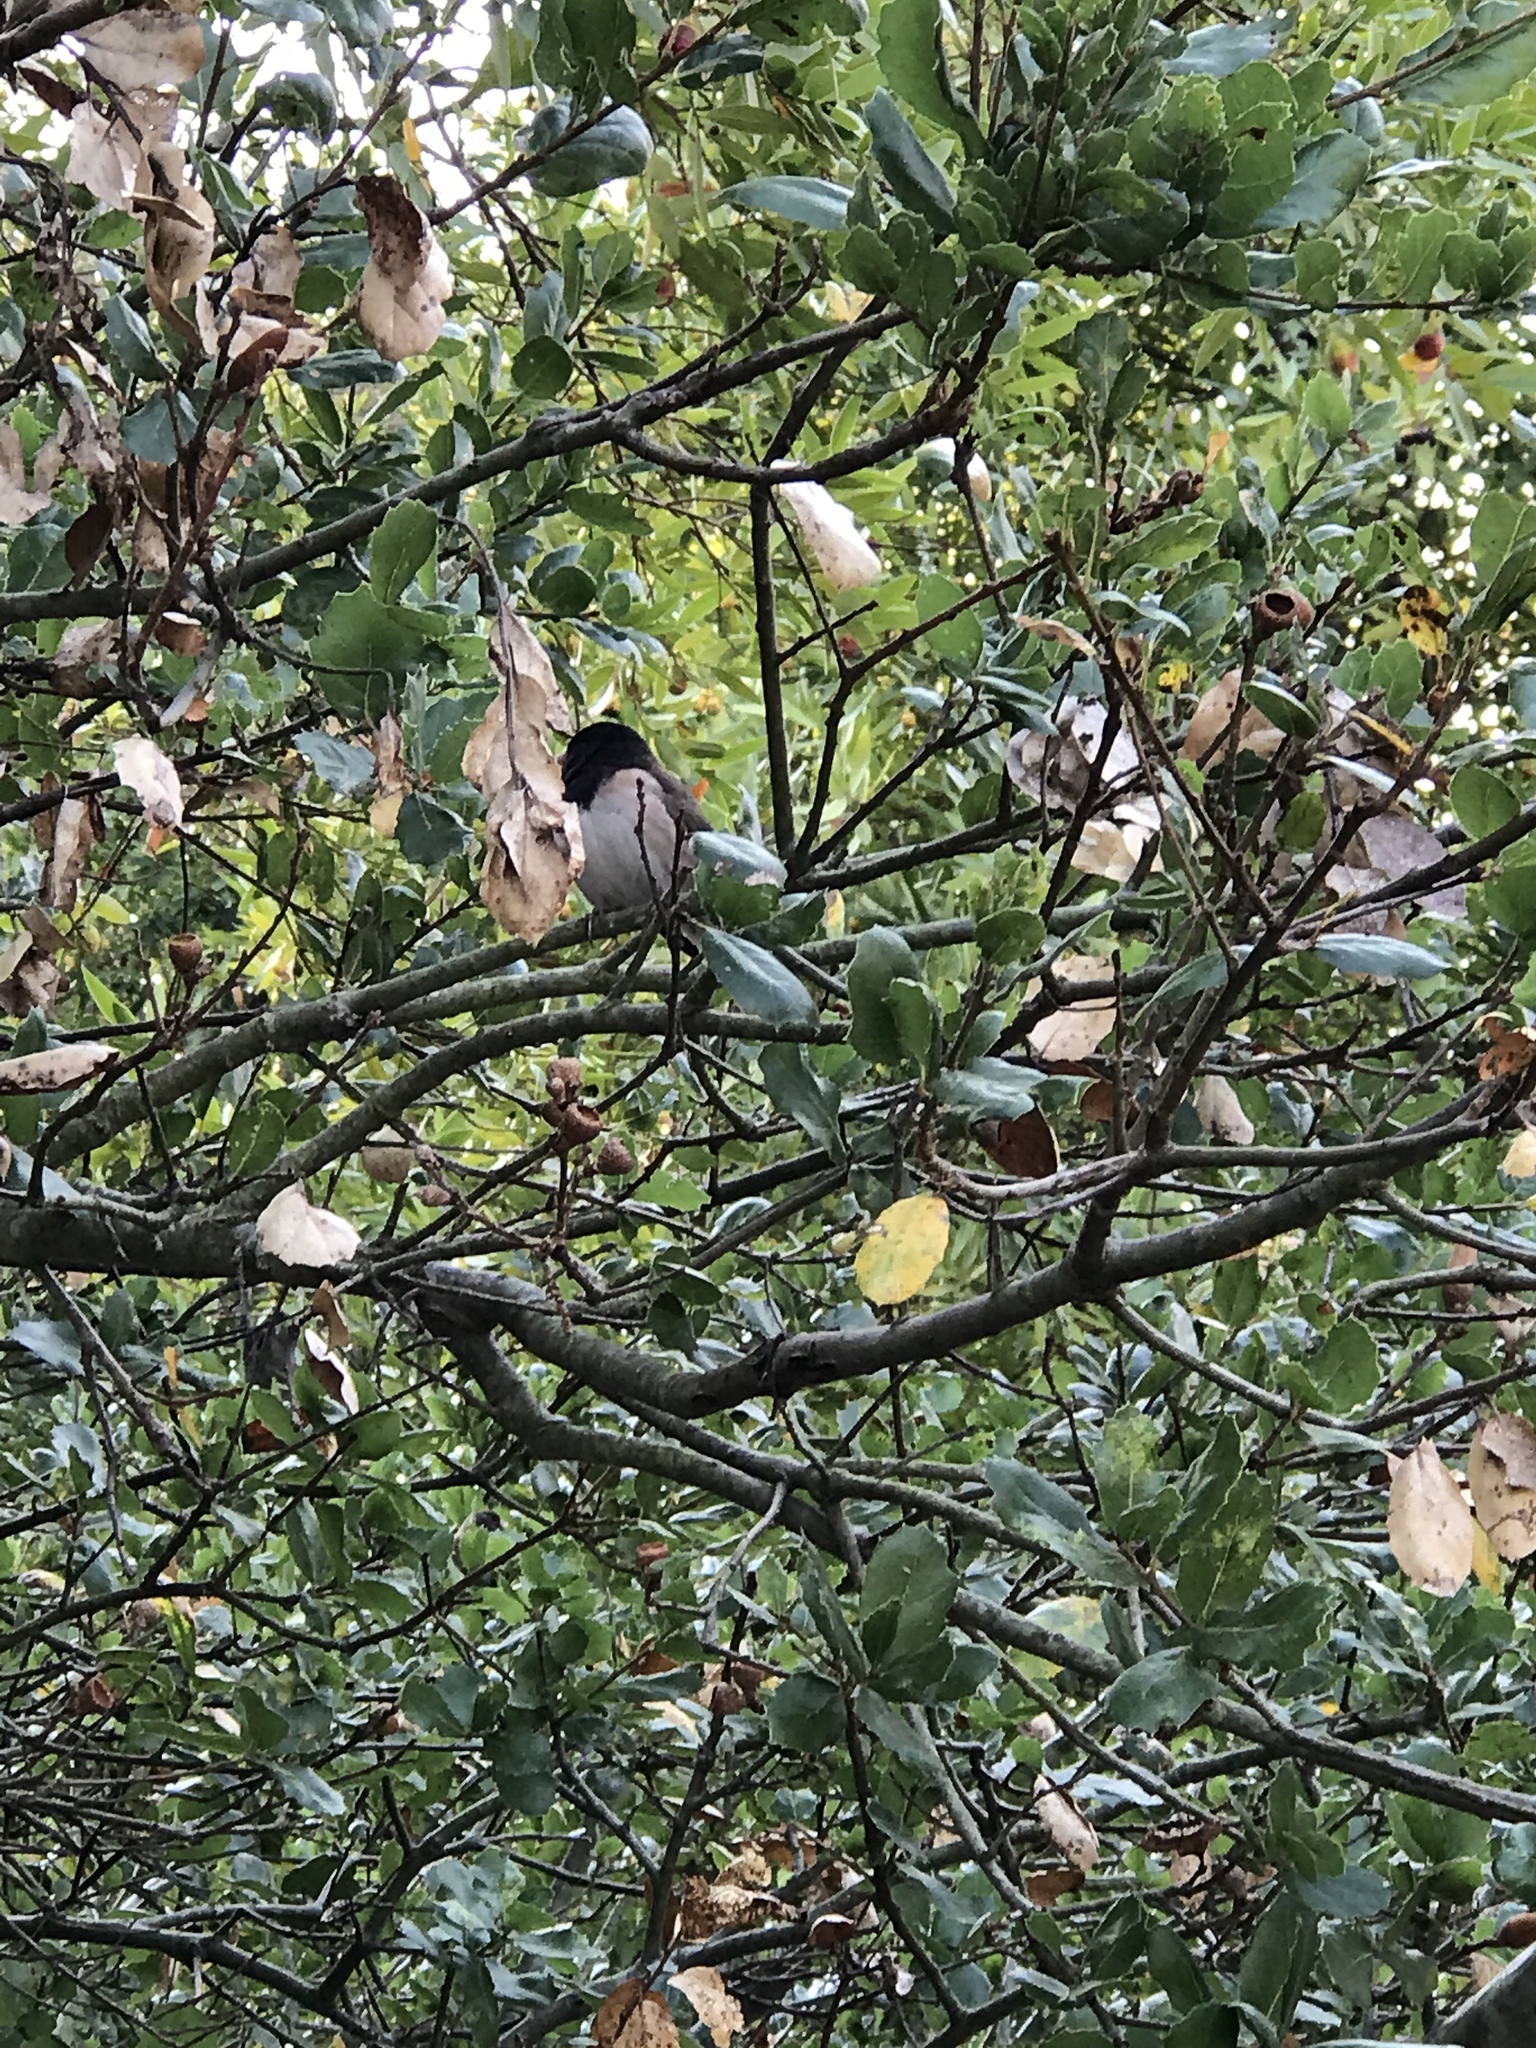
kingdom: Animalia
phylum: Chordata
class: Aves
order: Passeriformes
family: Passerellidae
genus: Junco
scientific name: Junco hyemalis
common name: Dark-eyed junco
